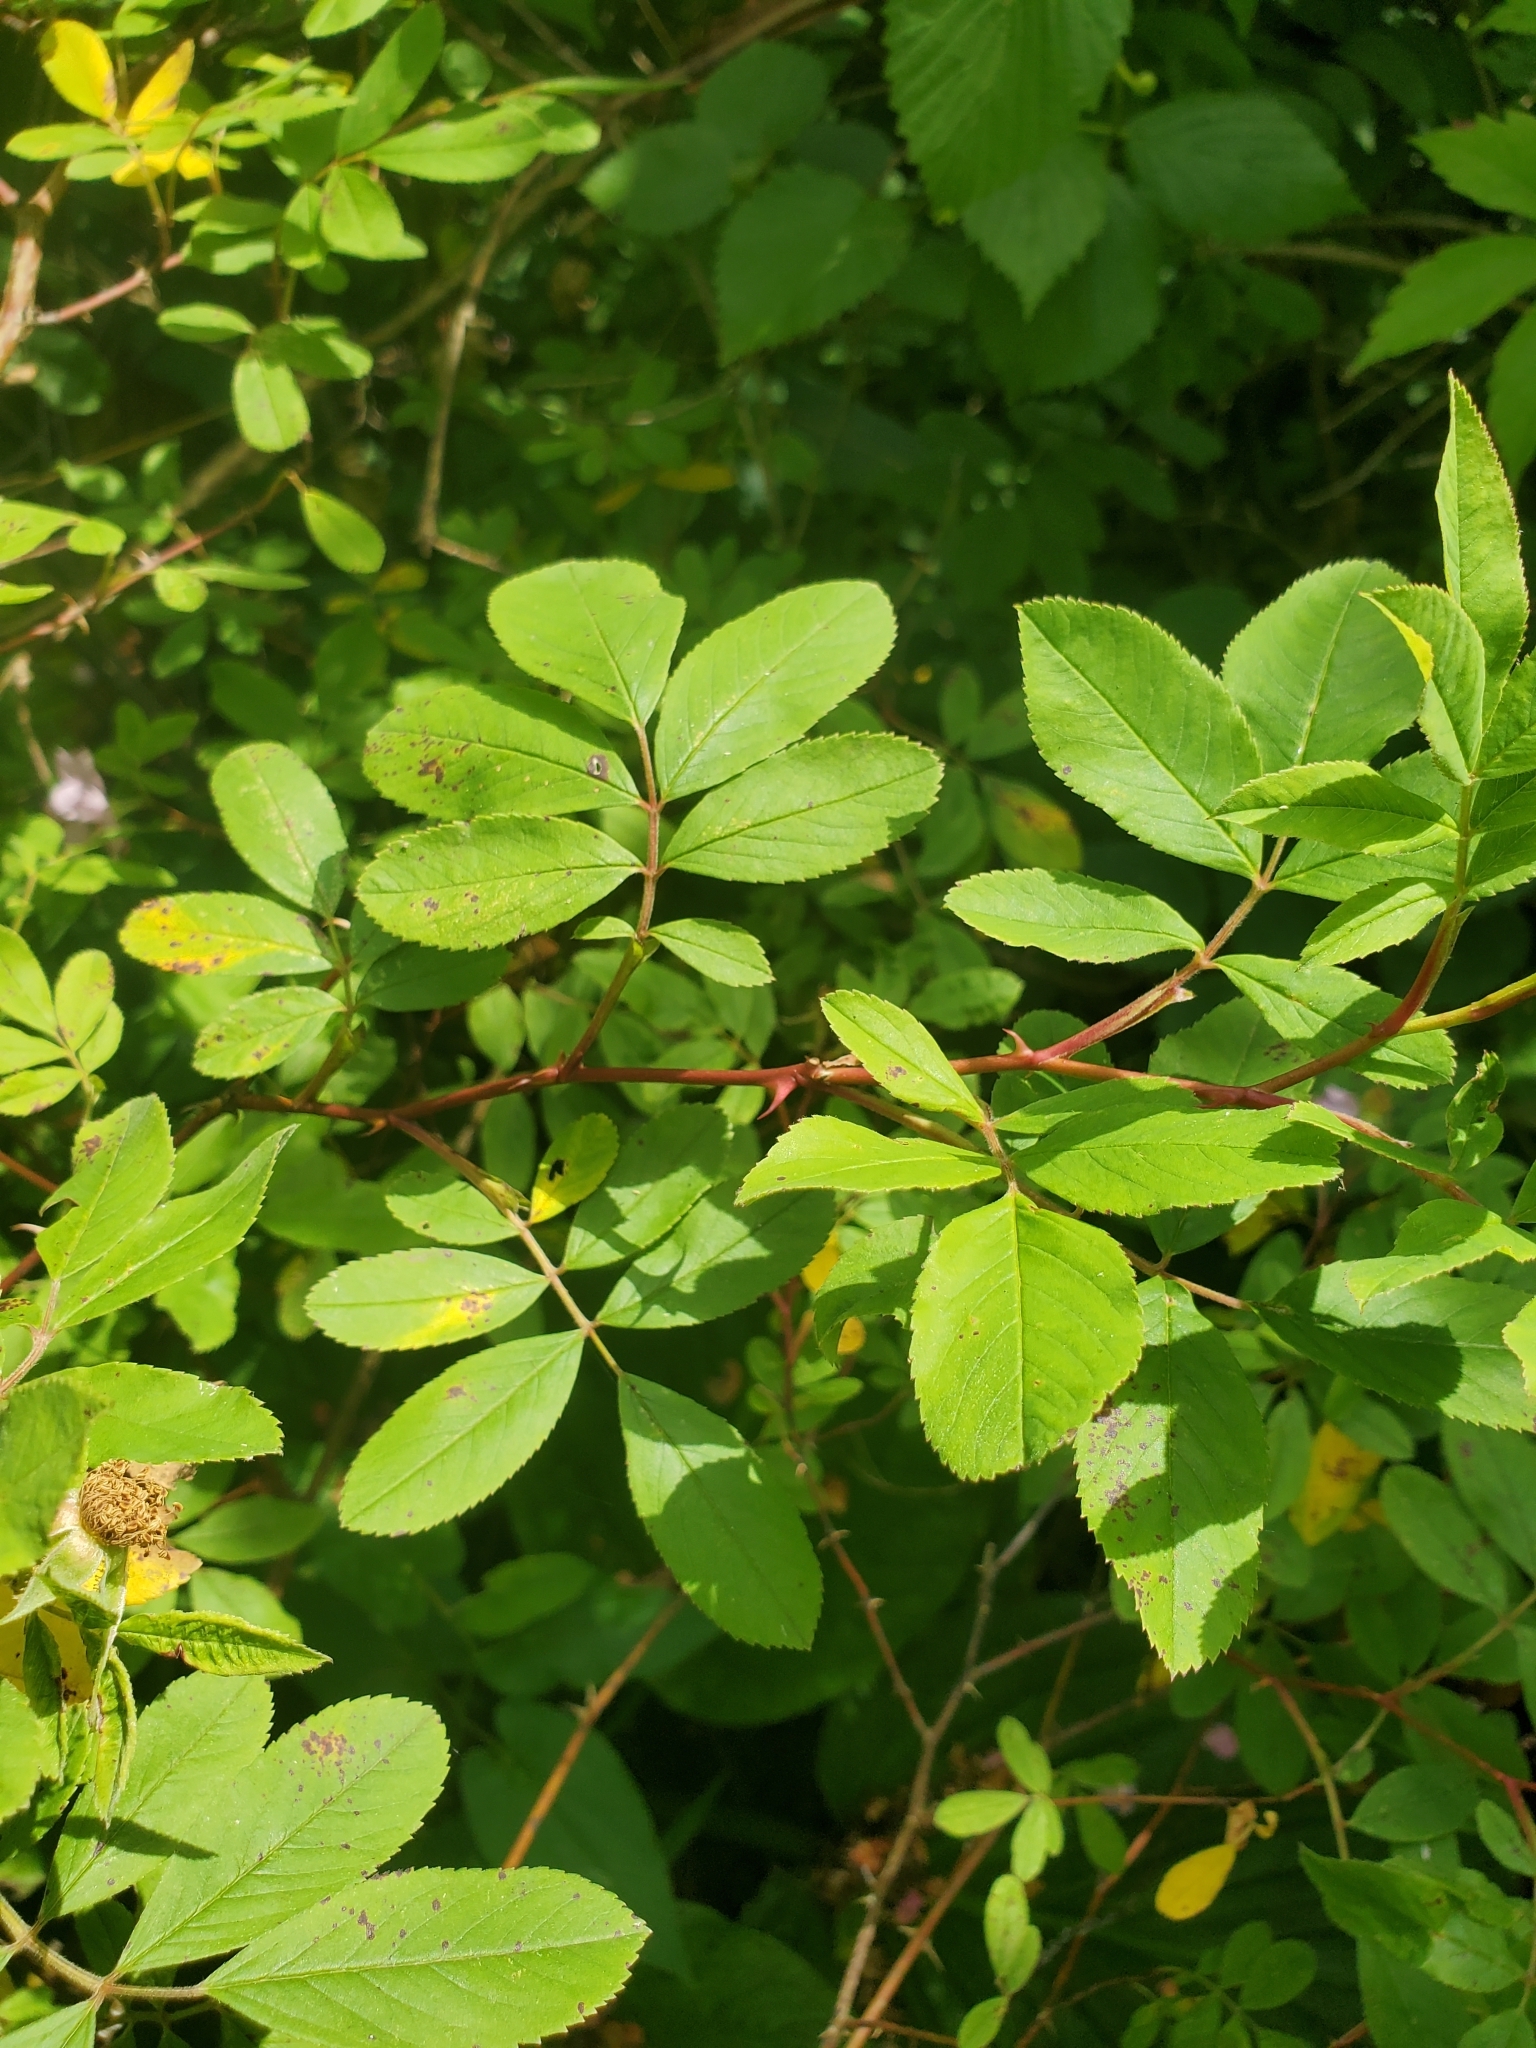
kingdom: Plantae
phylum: Tracheophyta
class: Magnoliopsida
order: Rosales
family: Rosaceae
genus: Rosa
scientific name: Rosa palustris
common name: Swamp rose
